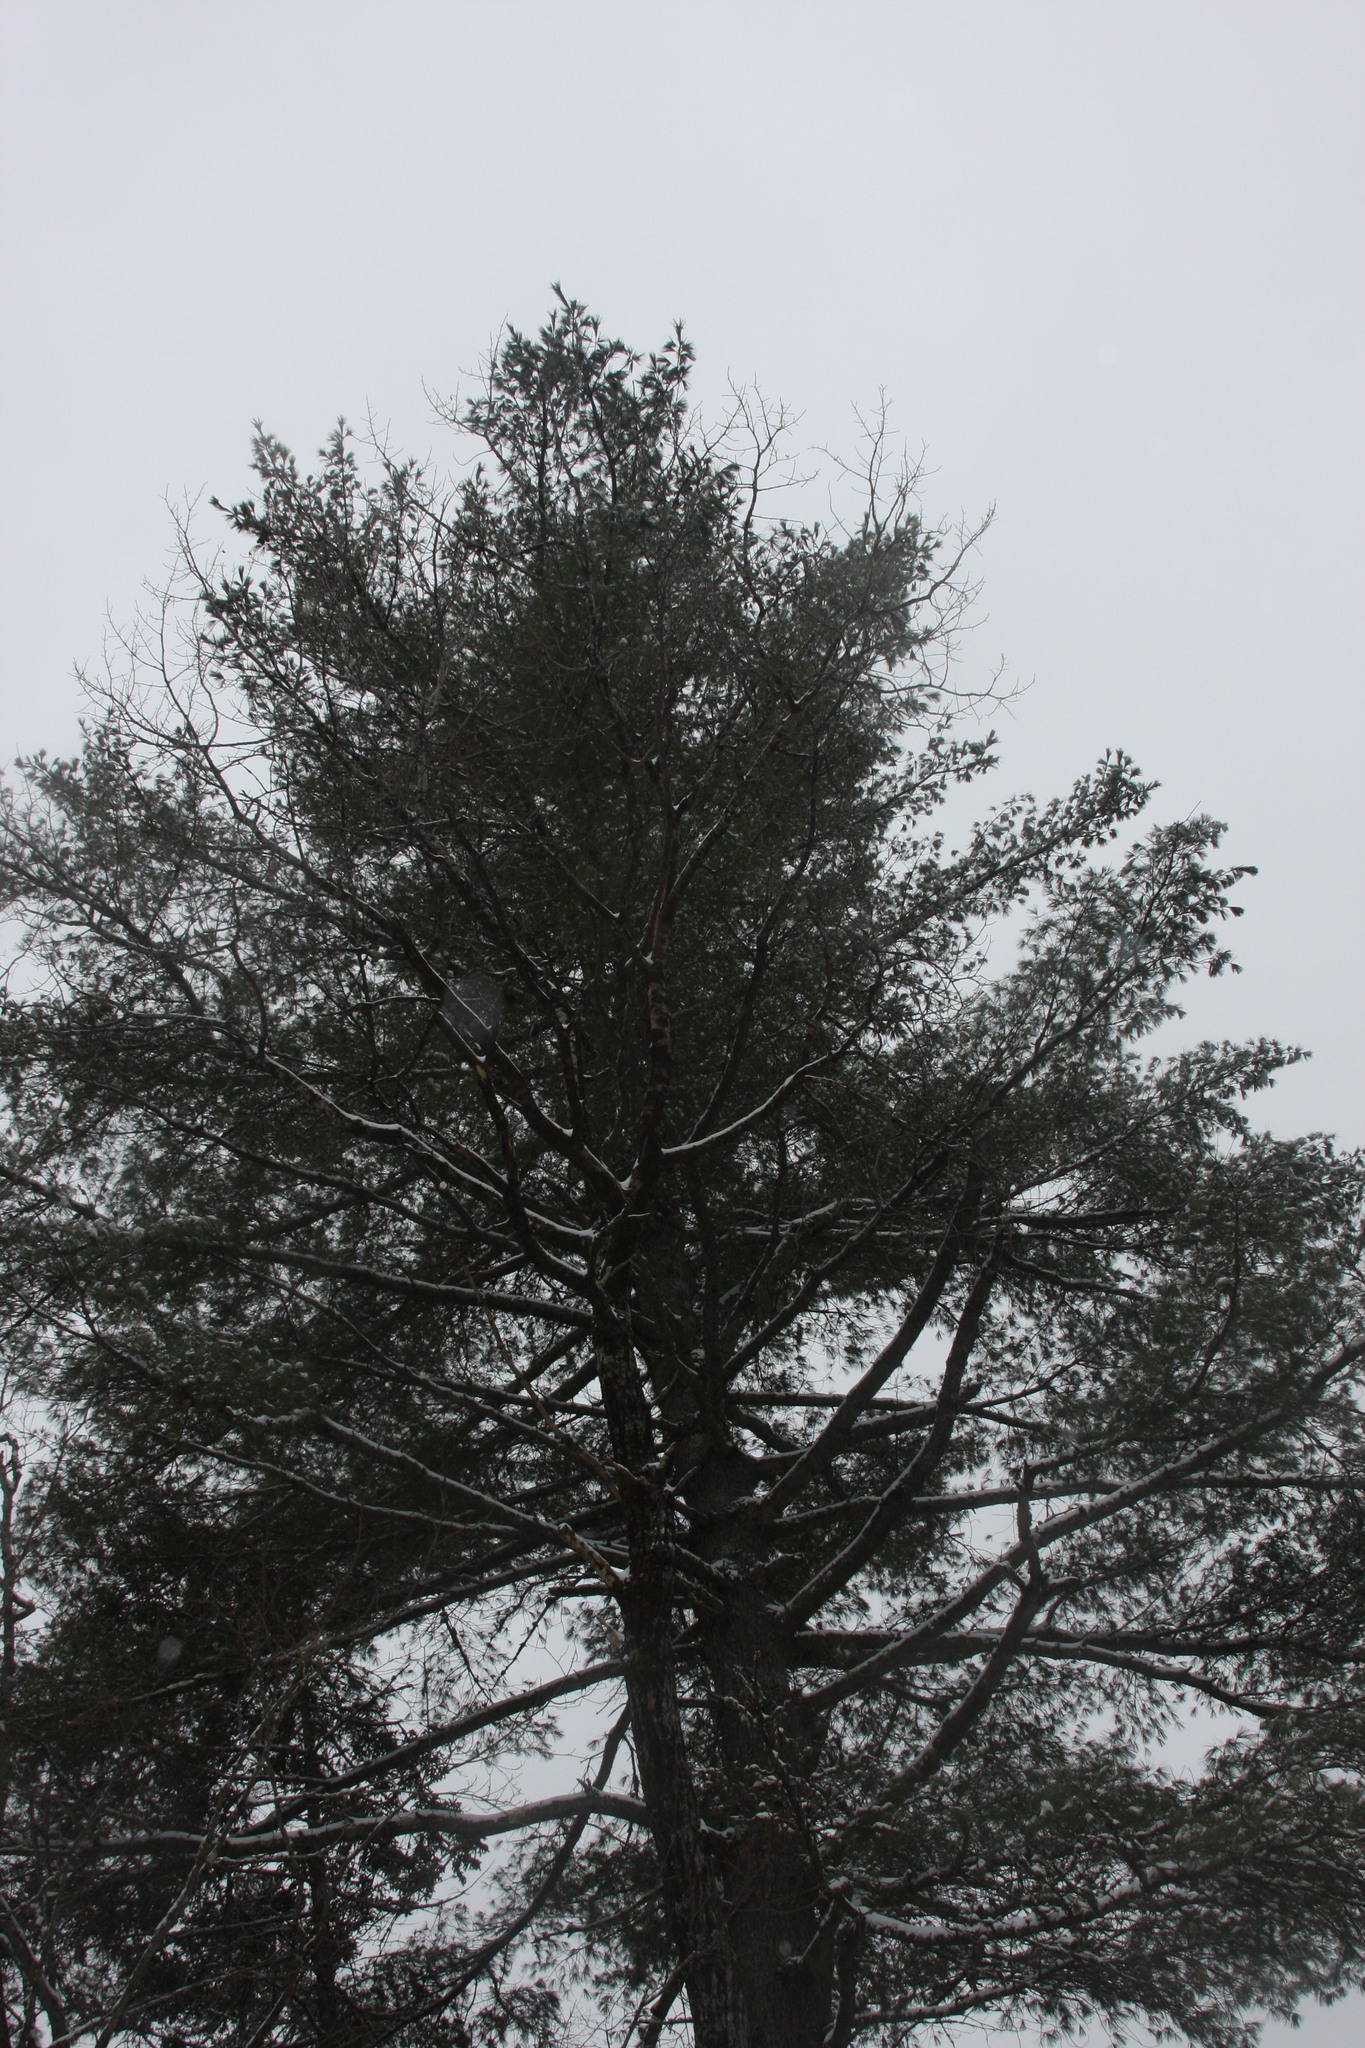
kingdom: Plantae
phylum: Tracheophyta
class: Pinopsida
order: Pinales
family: Pinaceae
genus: Pinus
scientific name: Pinus strobus
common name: Weymouth pine
